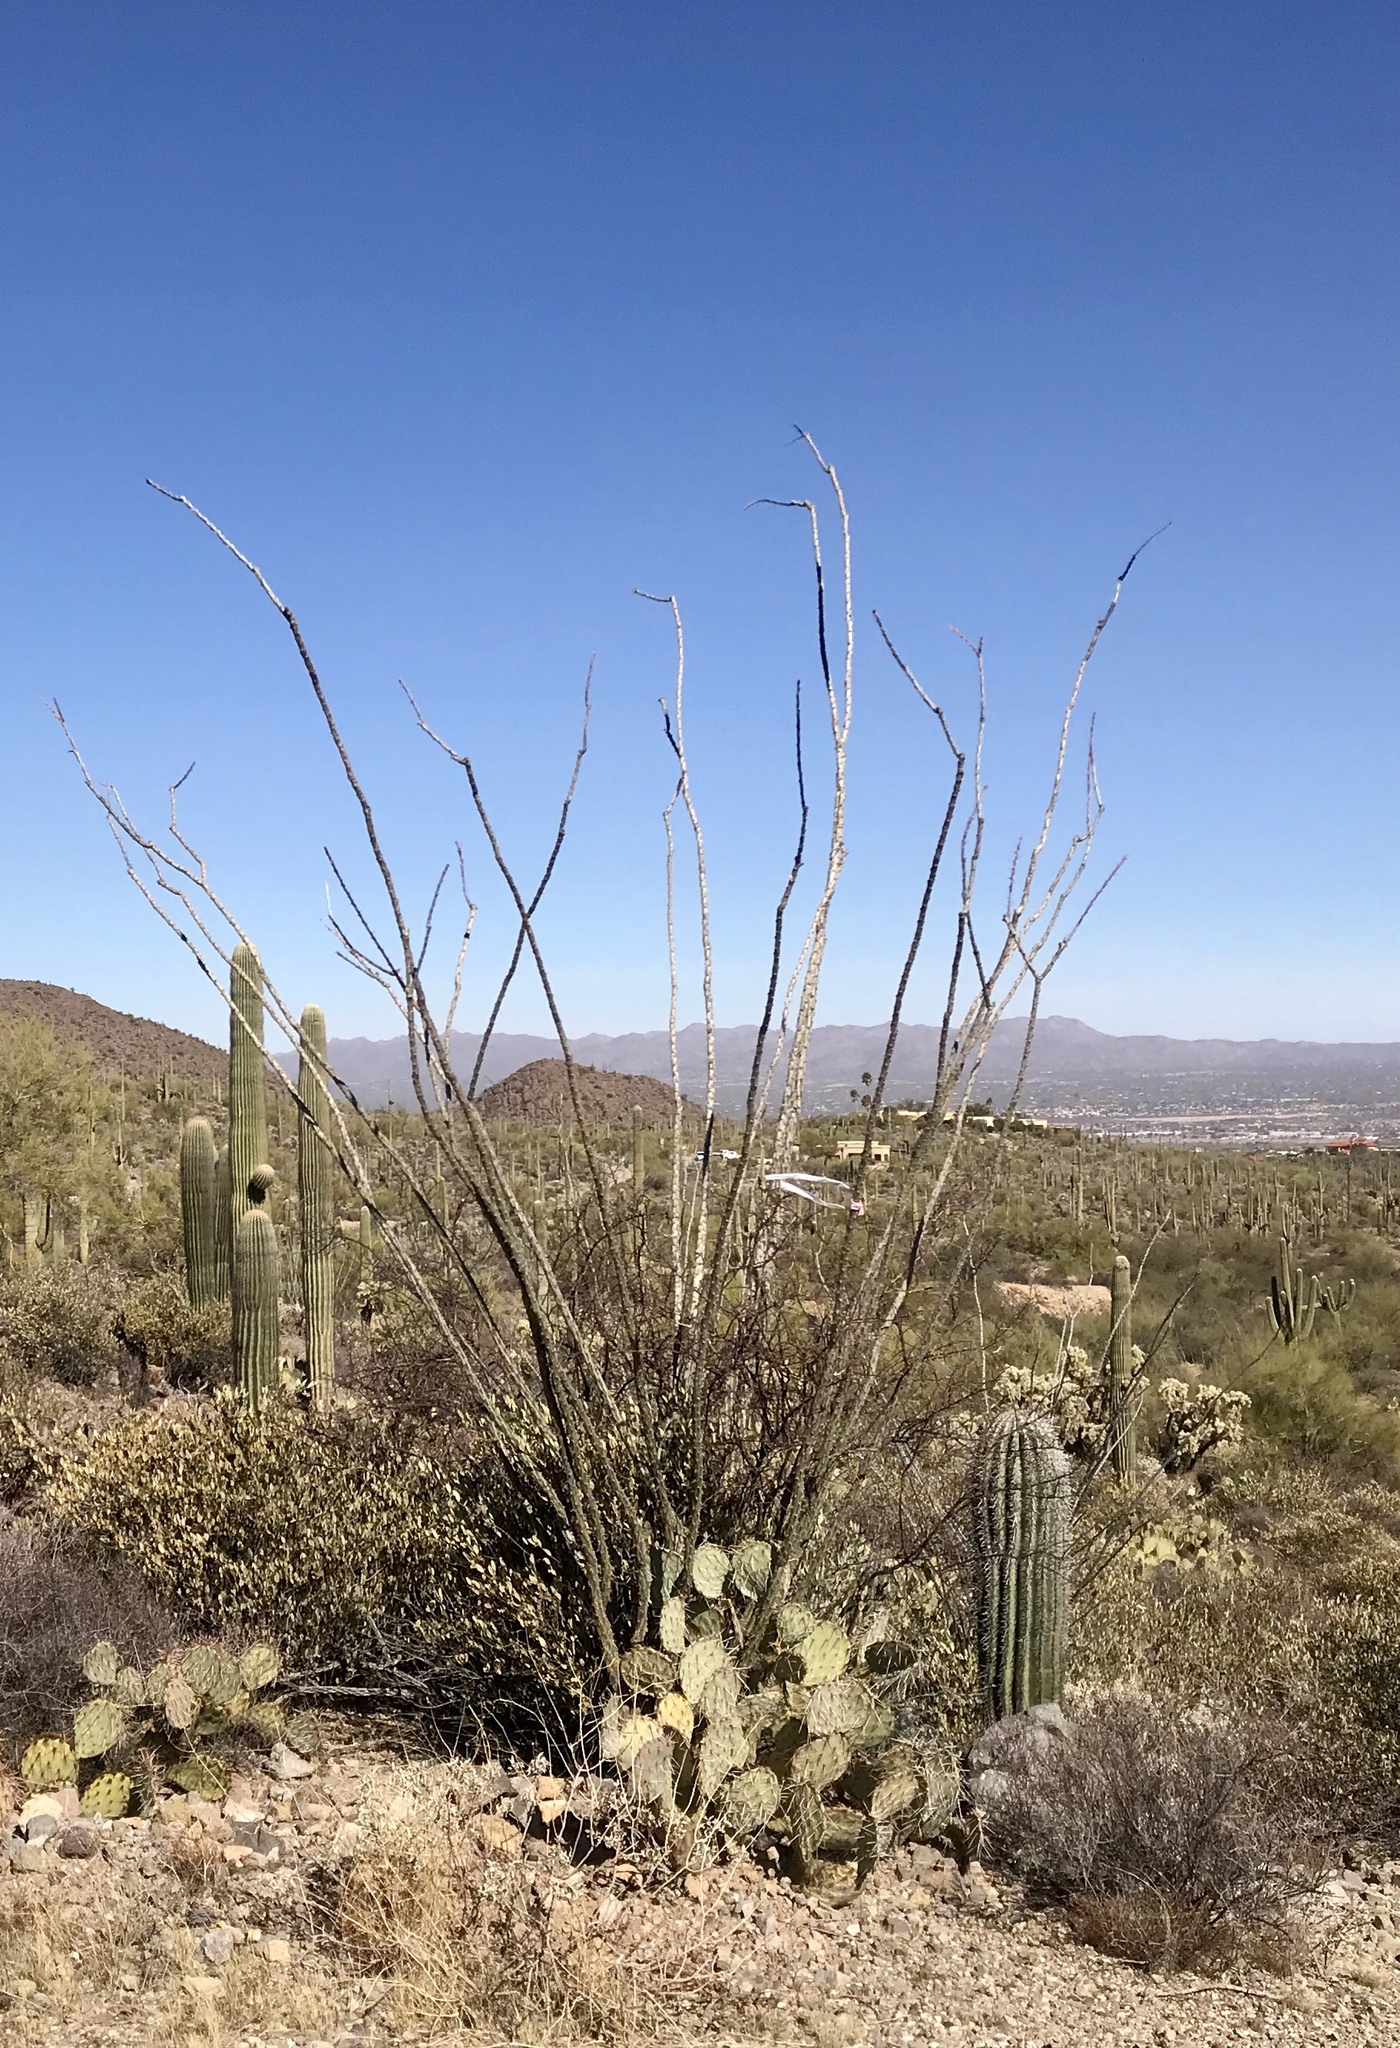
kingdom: Plantae
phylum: Tracheophyta
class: Magnoliopsida
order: Ericales
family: Fouquieriaceae
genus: Fouquieria
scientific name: Fouquieria splendens
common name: Vine-cactus
